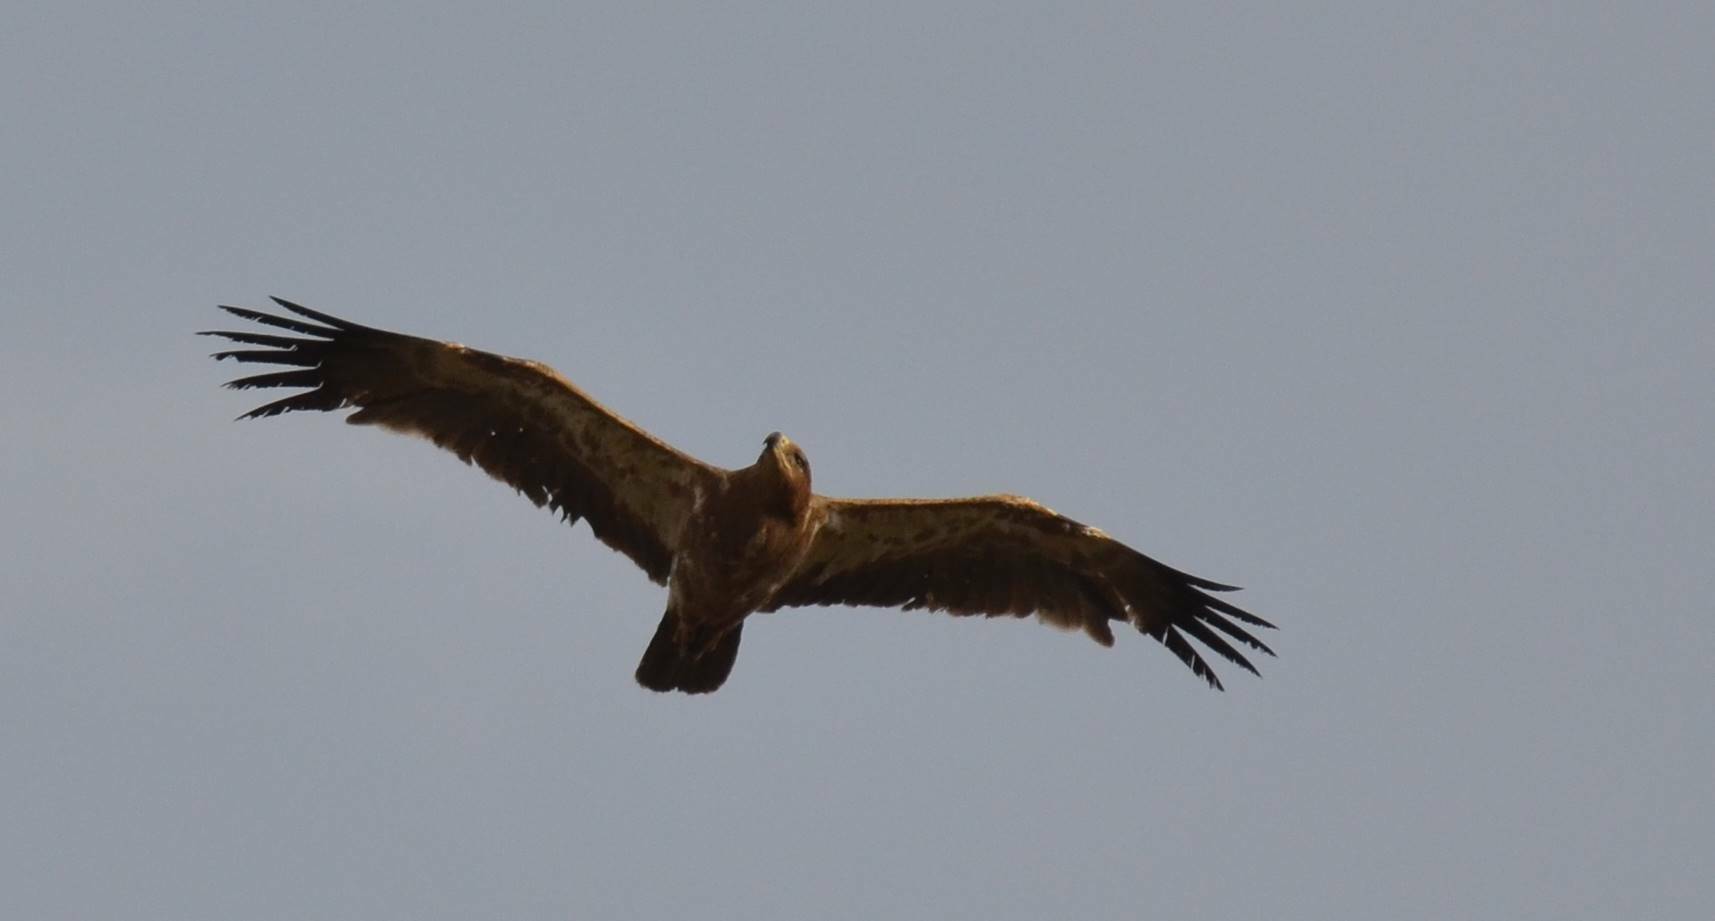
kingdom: Animalia
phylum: Chordata
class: Aves
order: Accipitriformes
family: Accipitridae
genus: Aquila
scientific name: Aquila rapax
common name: Tawny eagle
